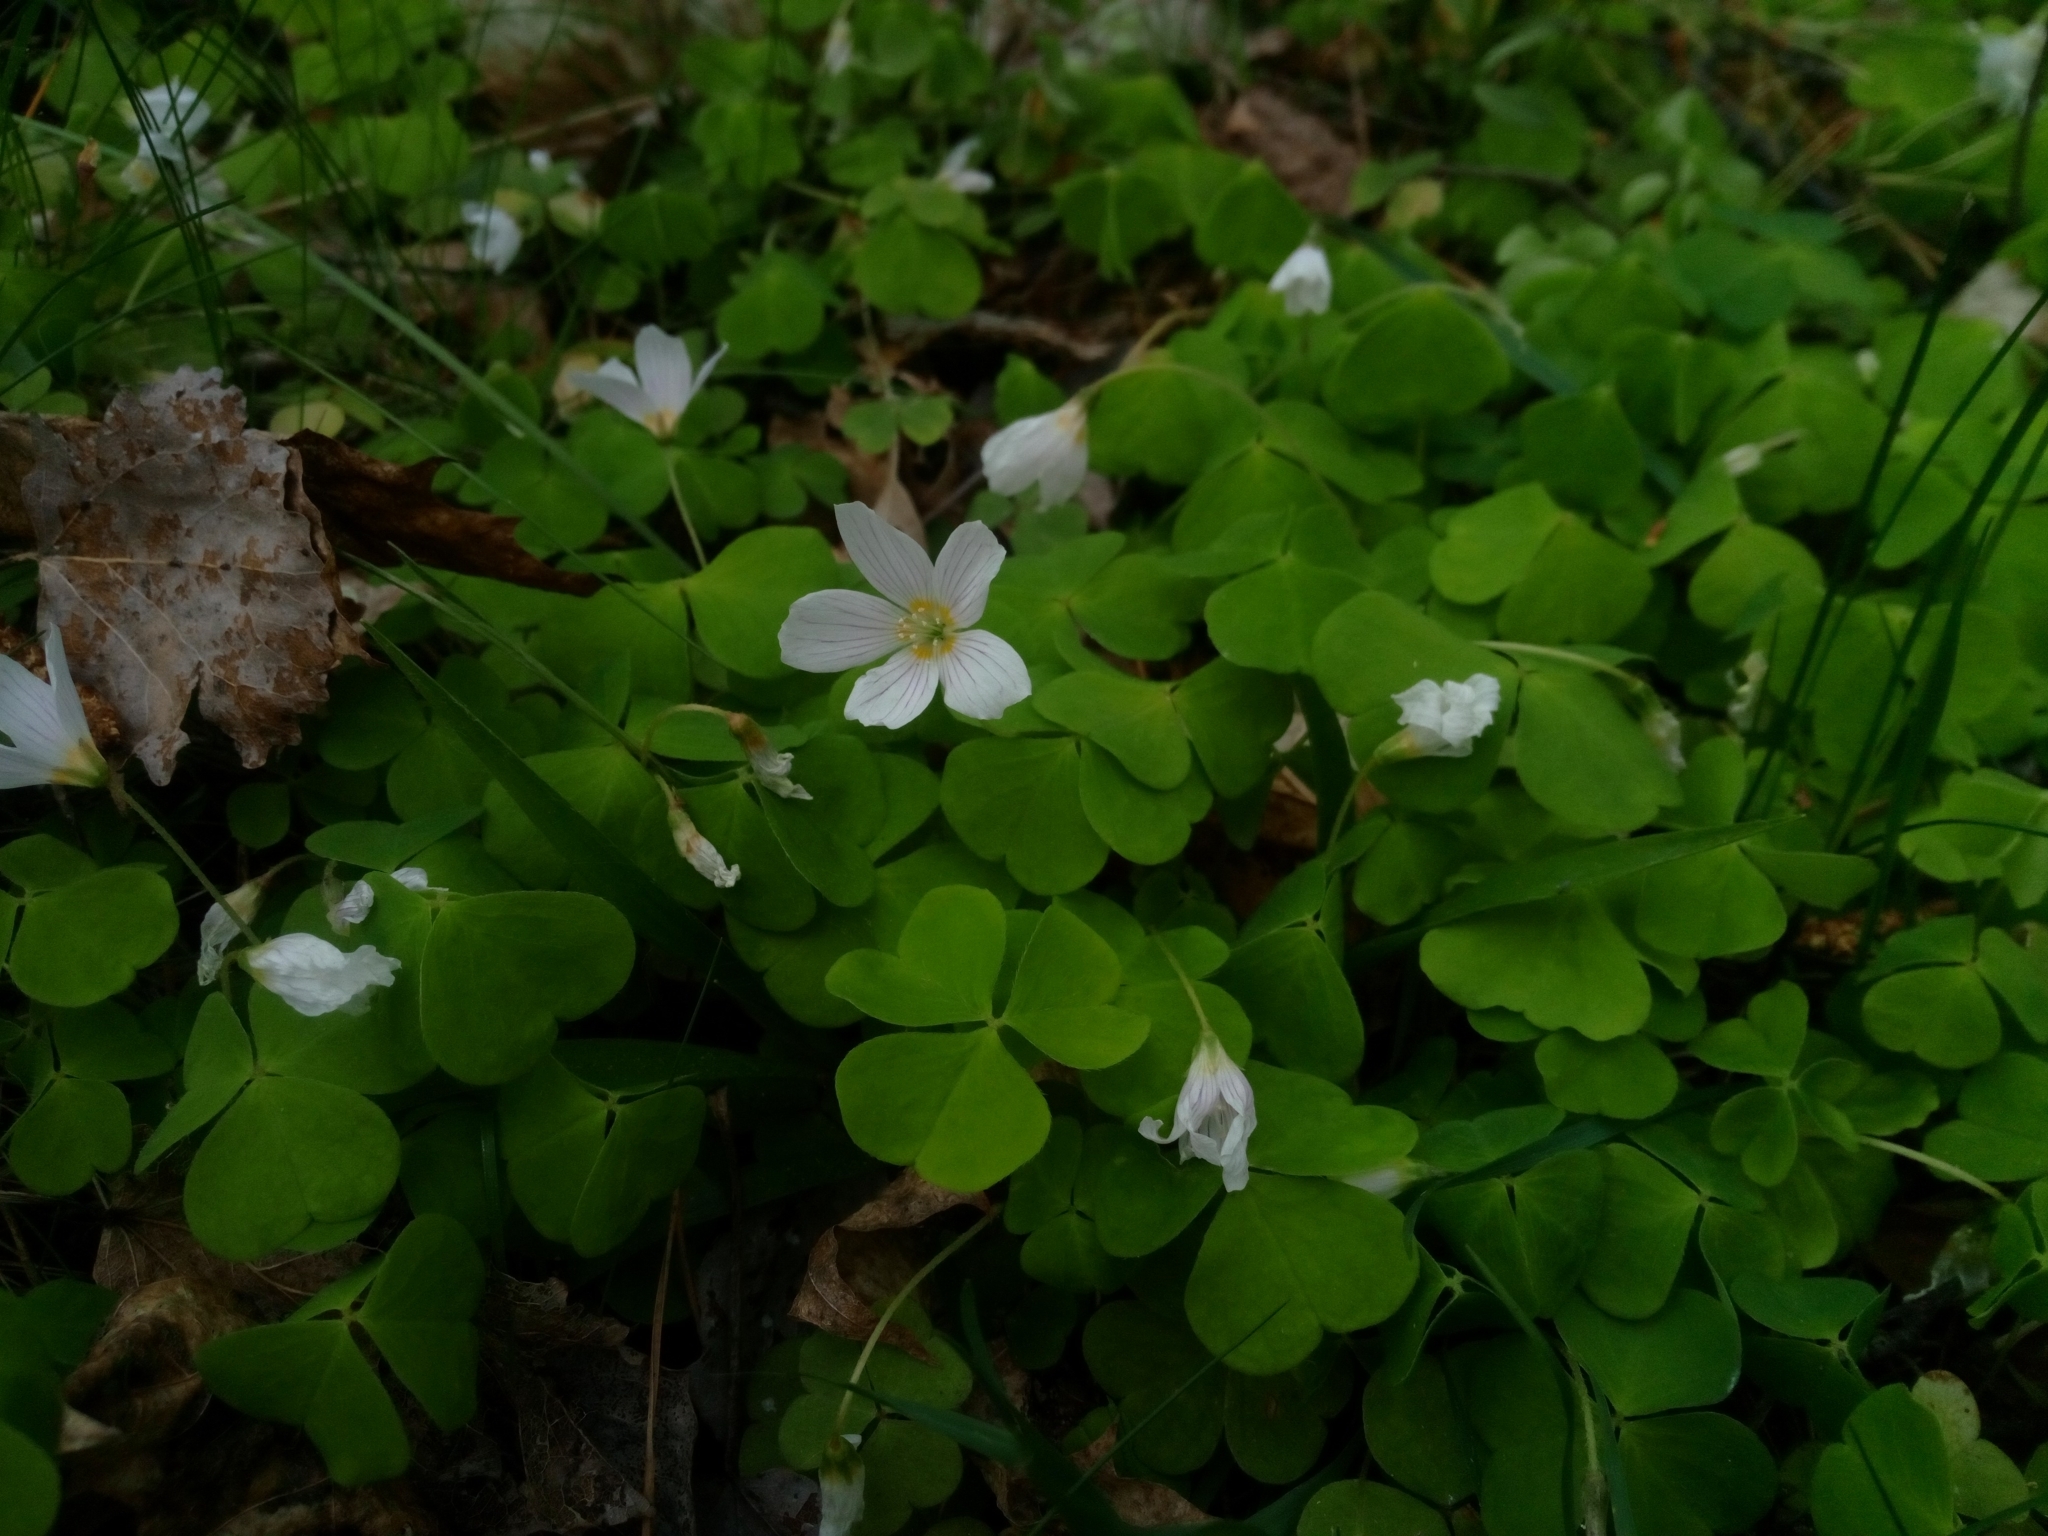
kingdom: Plantae
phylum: Tracheophyta
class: Magnoliopsida
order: Oxalidales
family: Oxalidaceae
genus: Oxalis
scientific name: Oxalis acetosella
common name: Wood-sorrel
